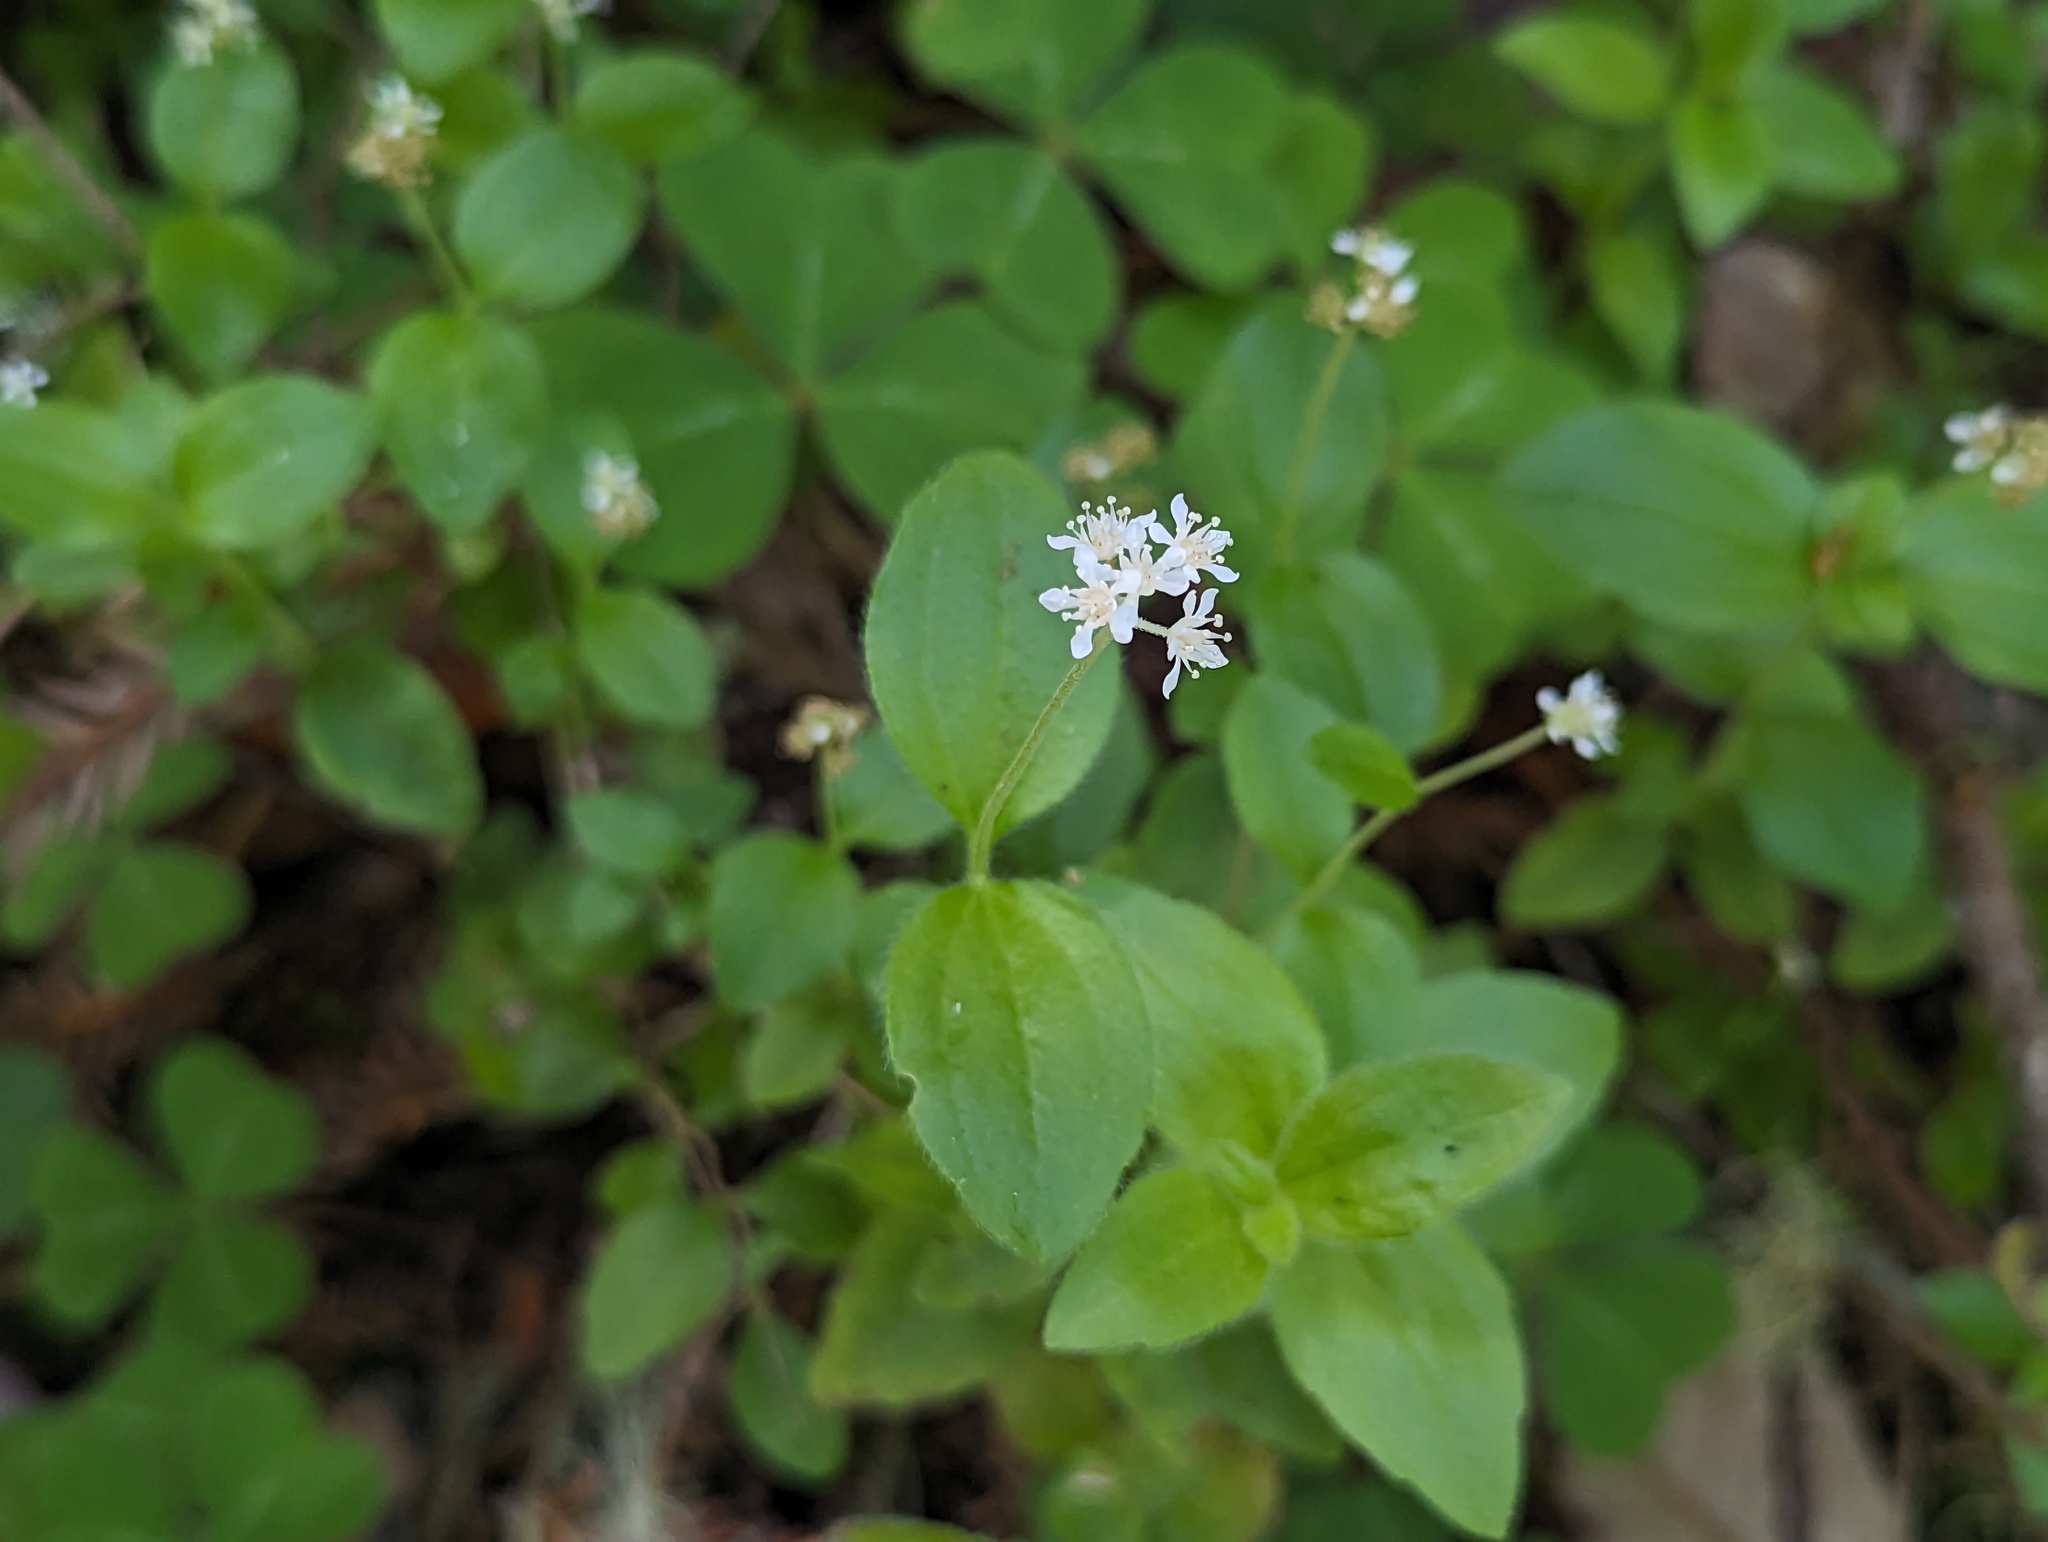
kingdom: Plantae
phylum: Tracheophyta
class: Magnoliopsida
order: Cornales
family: Hydrangeaceae
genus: Whipplea
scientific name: Whipplea modesta
